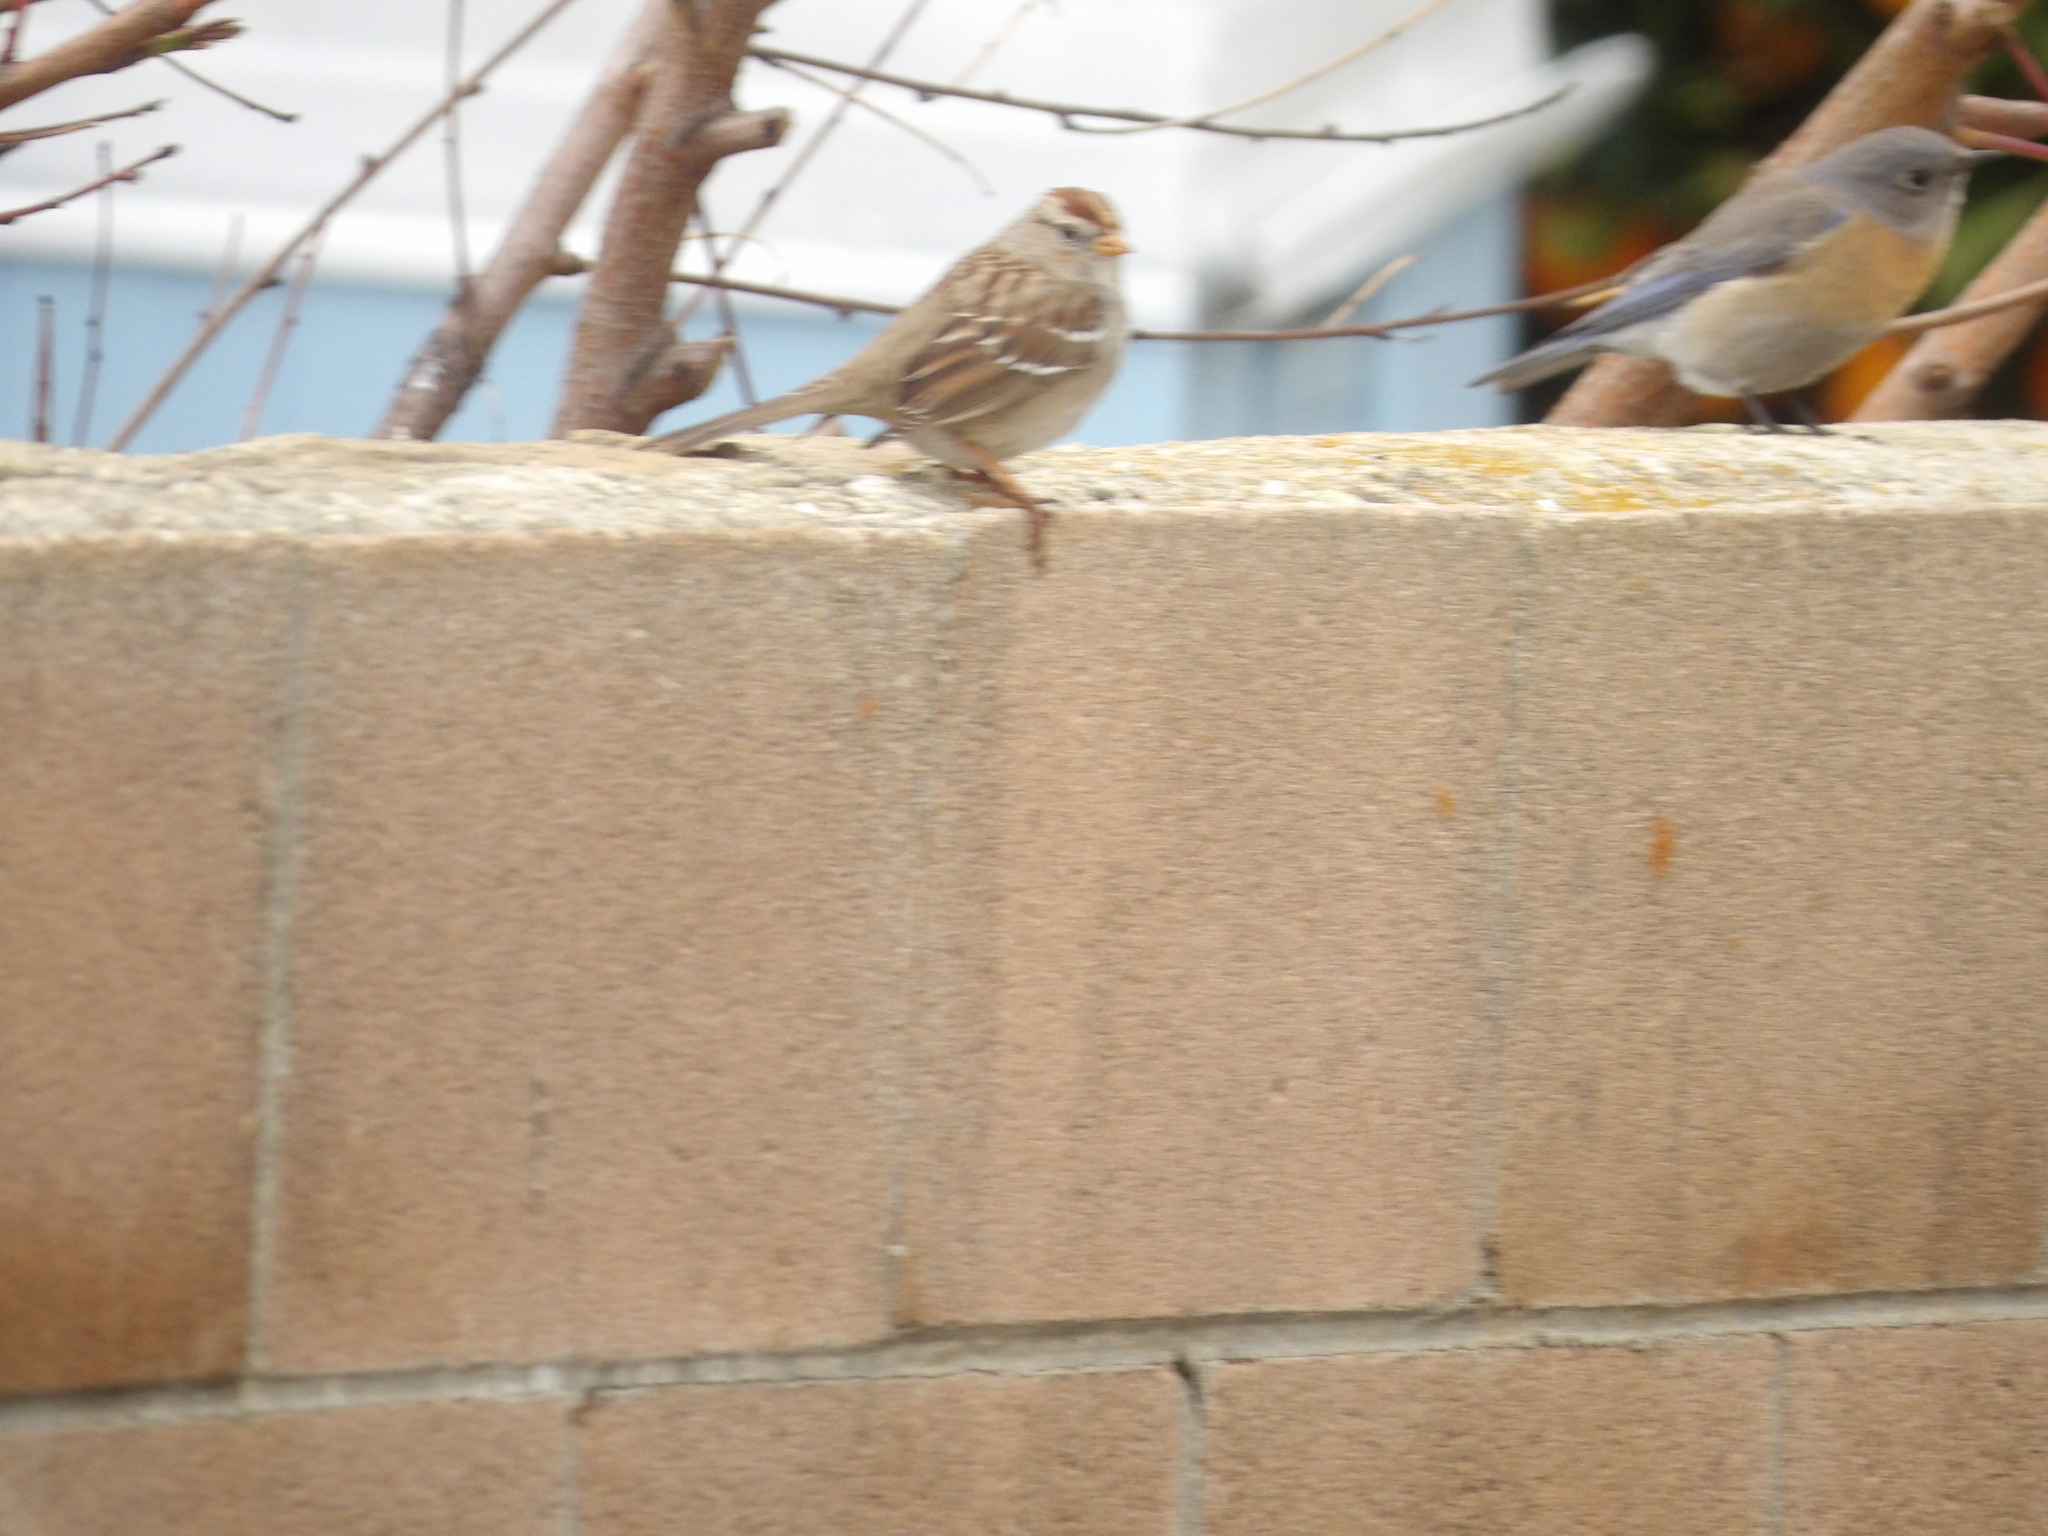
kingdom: Animalia
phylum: Chordata
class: Aves
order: Passeriformes
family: Passerellidae
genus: Zonotrichia
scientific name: Zonotrichia leucophrys
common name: White-crowned sparrow
